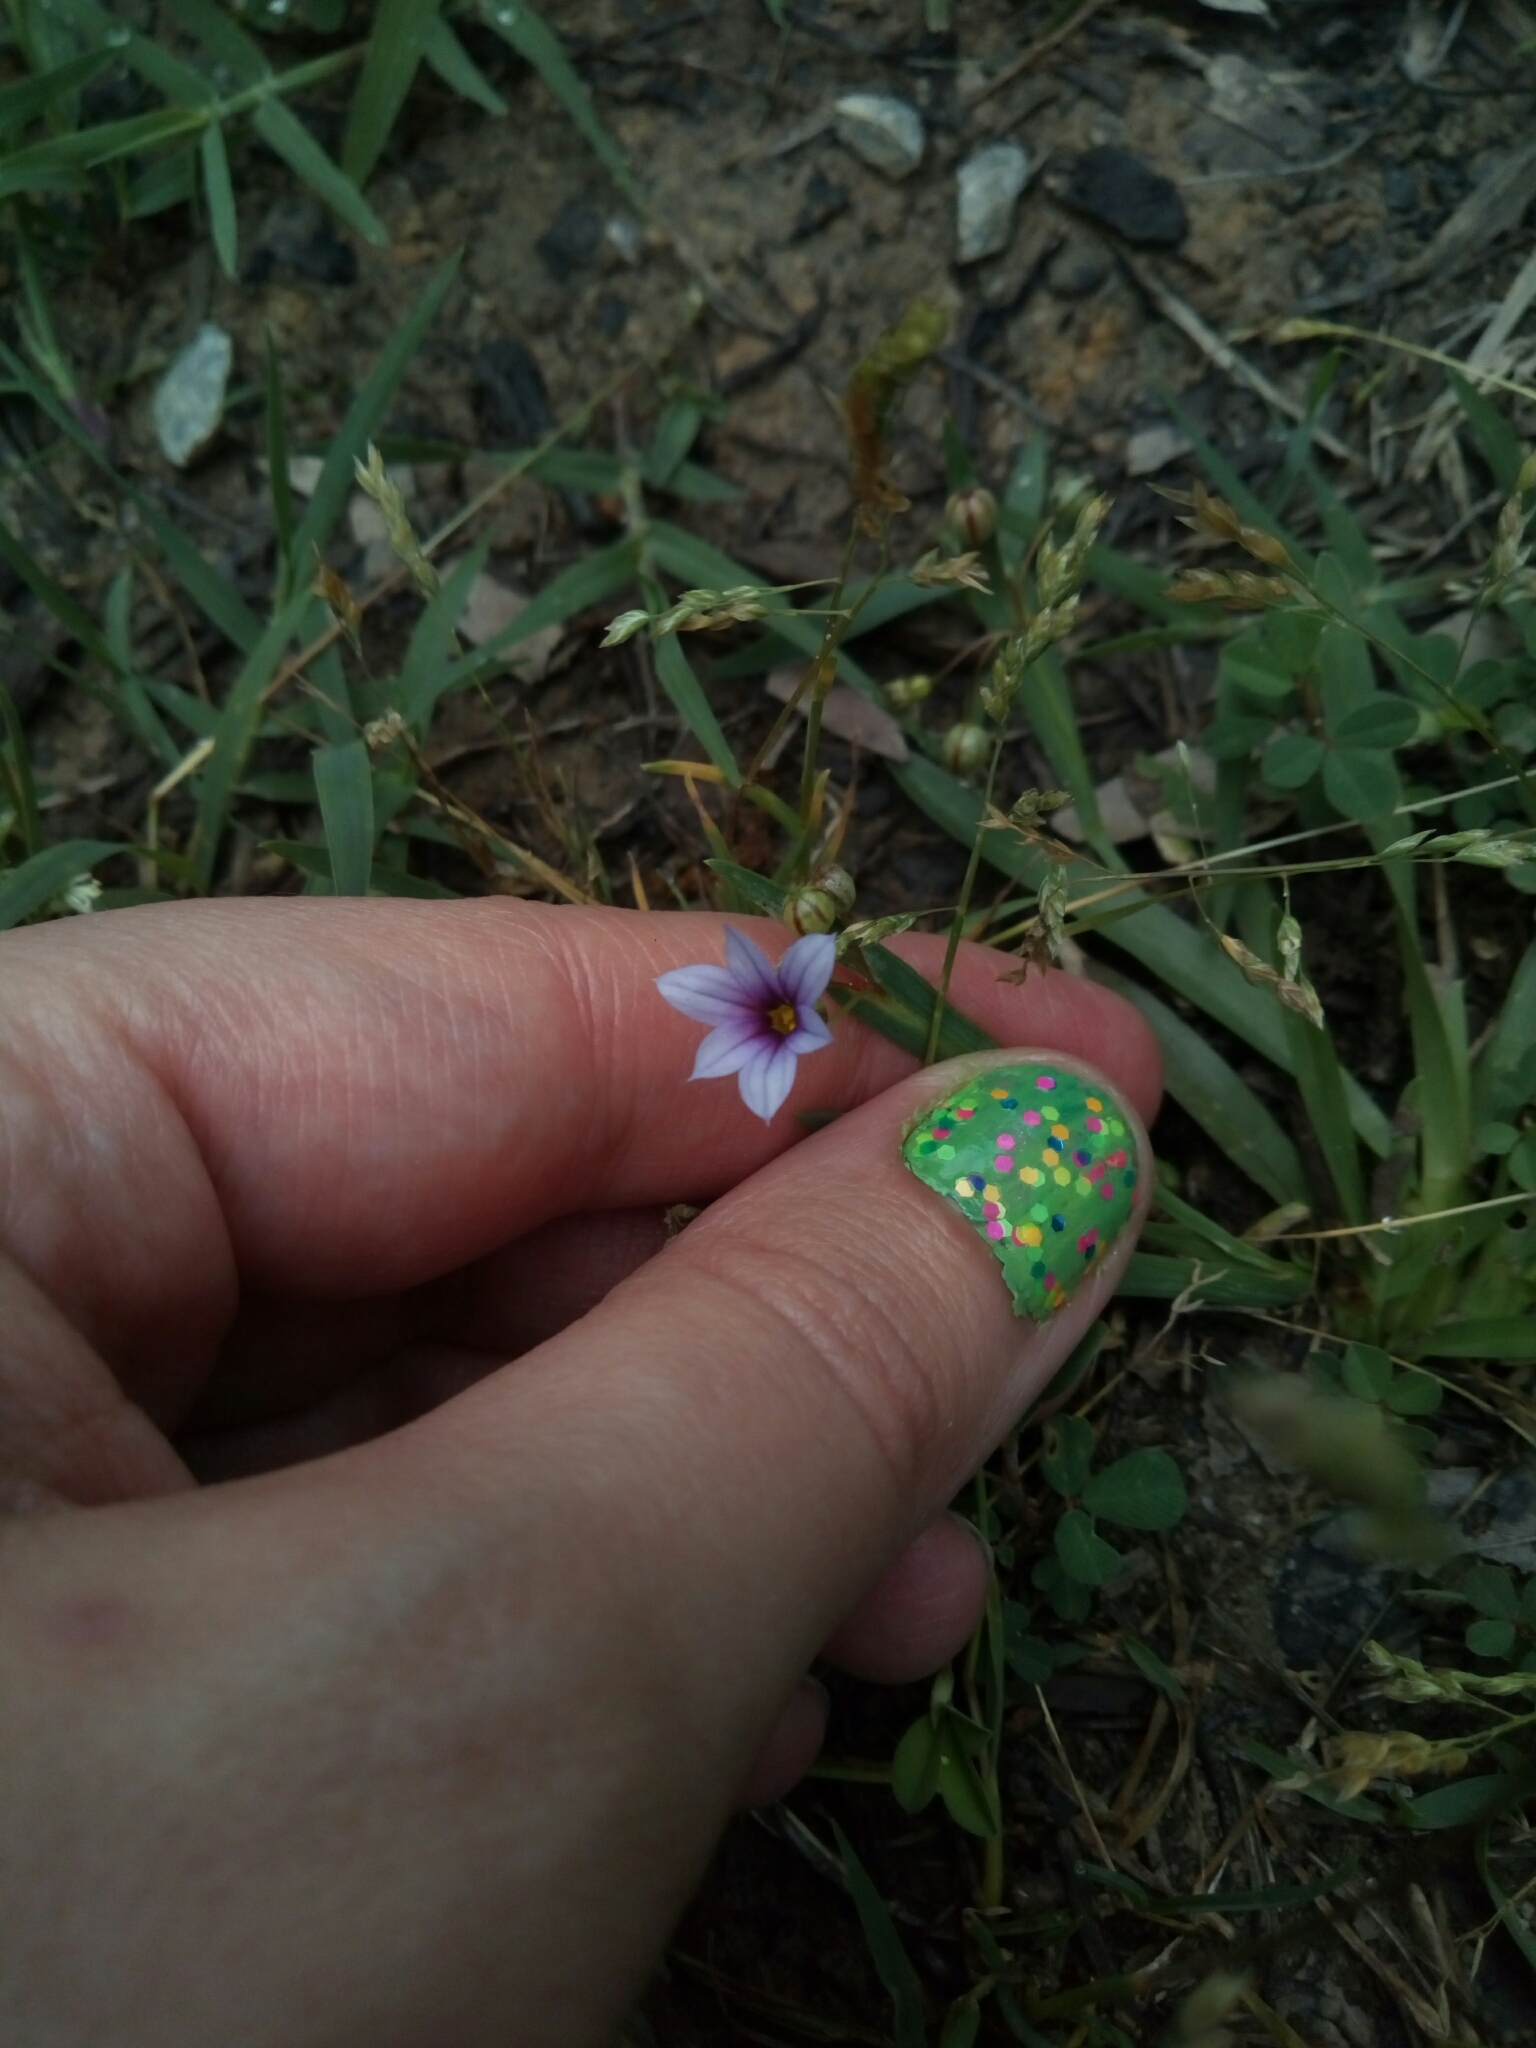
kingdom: Plantae
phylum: Tracheophyta
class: Liliopsida
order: Asparagales
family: Iridaceae
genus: Sisyrinchium
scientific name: Sisyrinchium micranthum
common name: Bermuda pigroot
